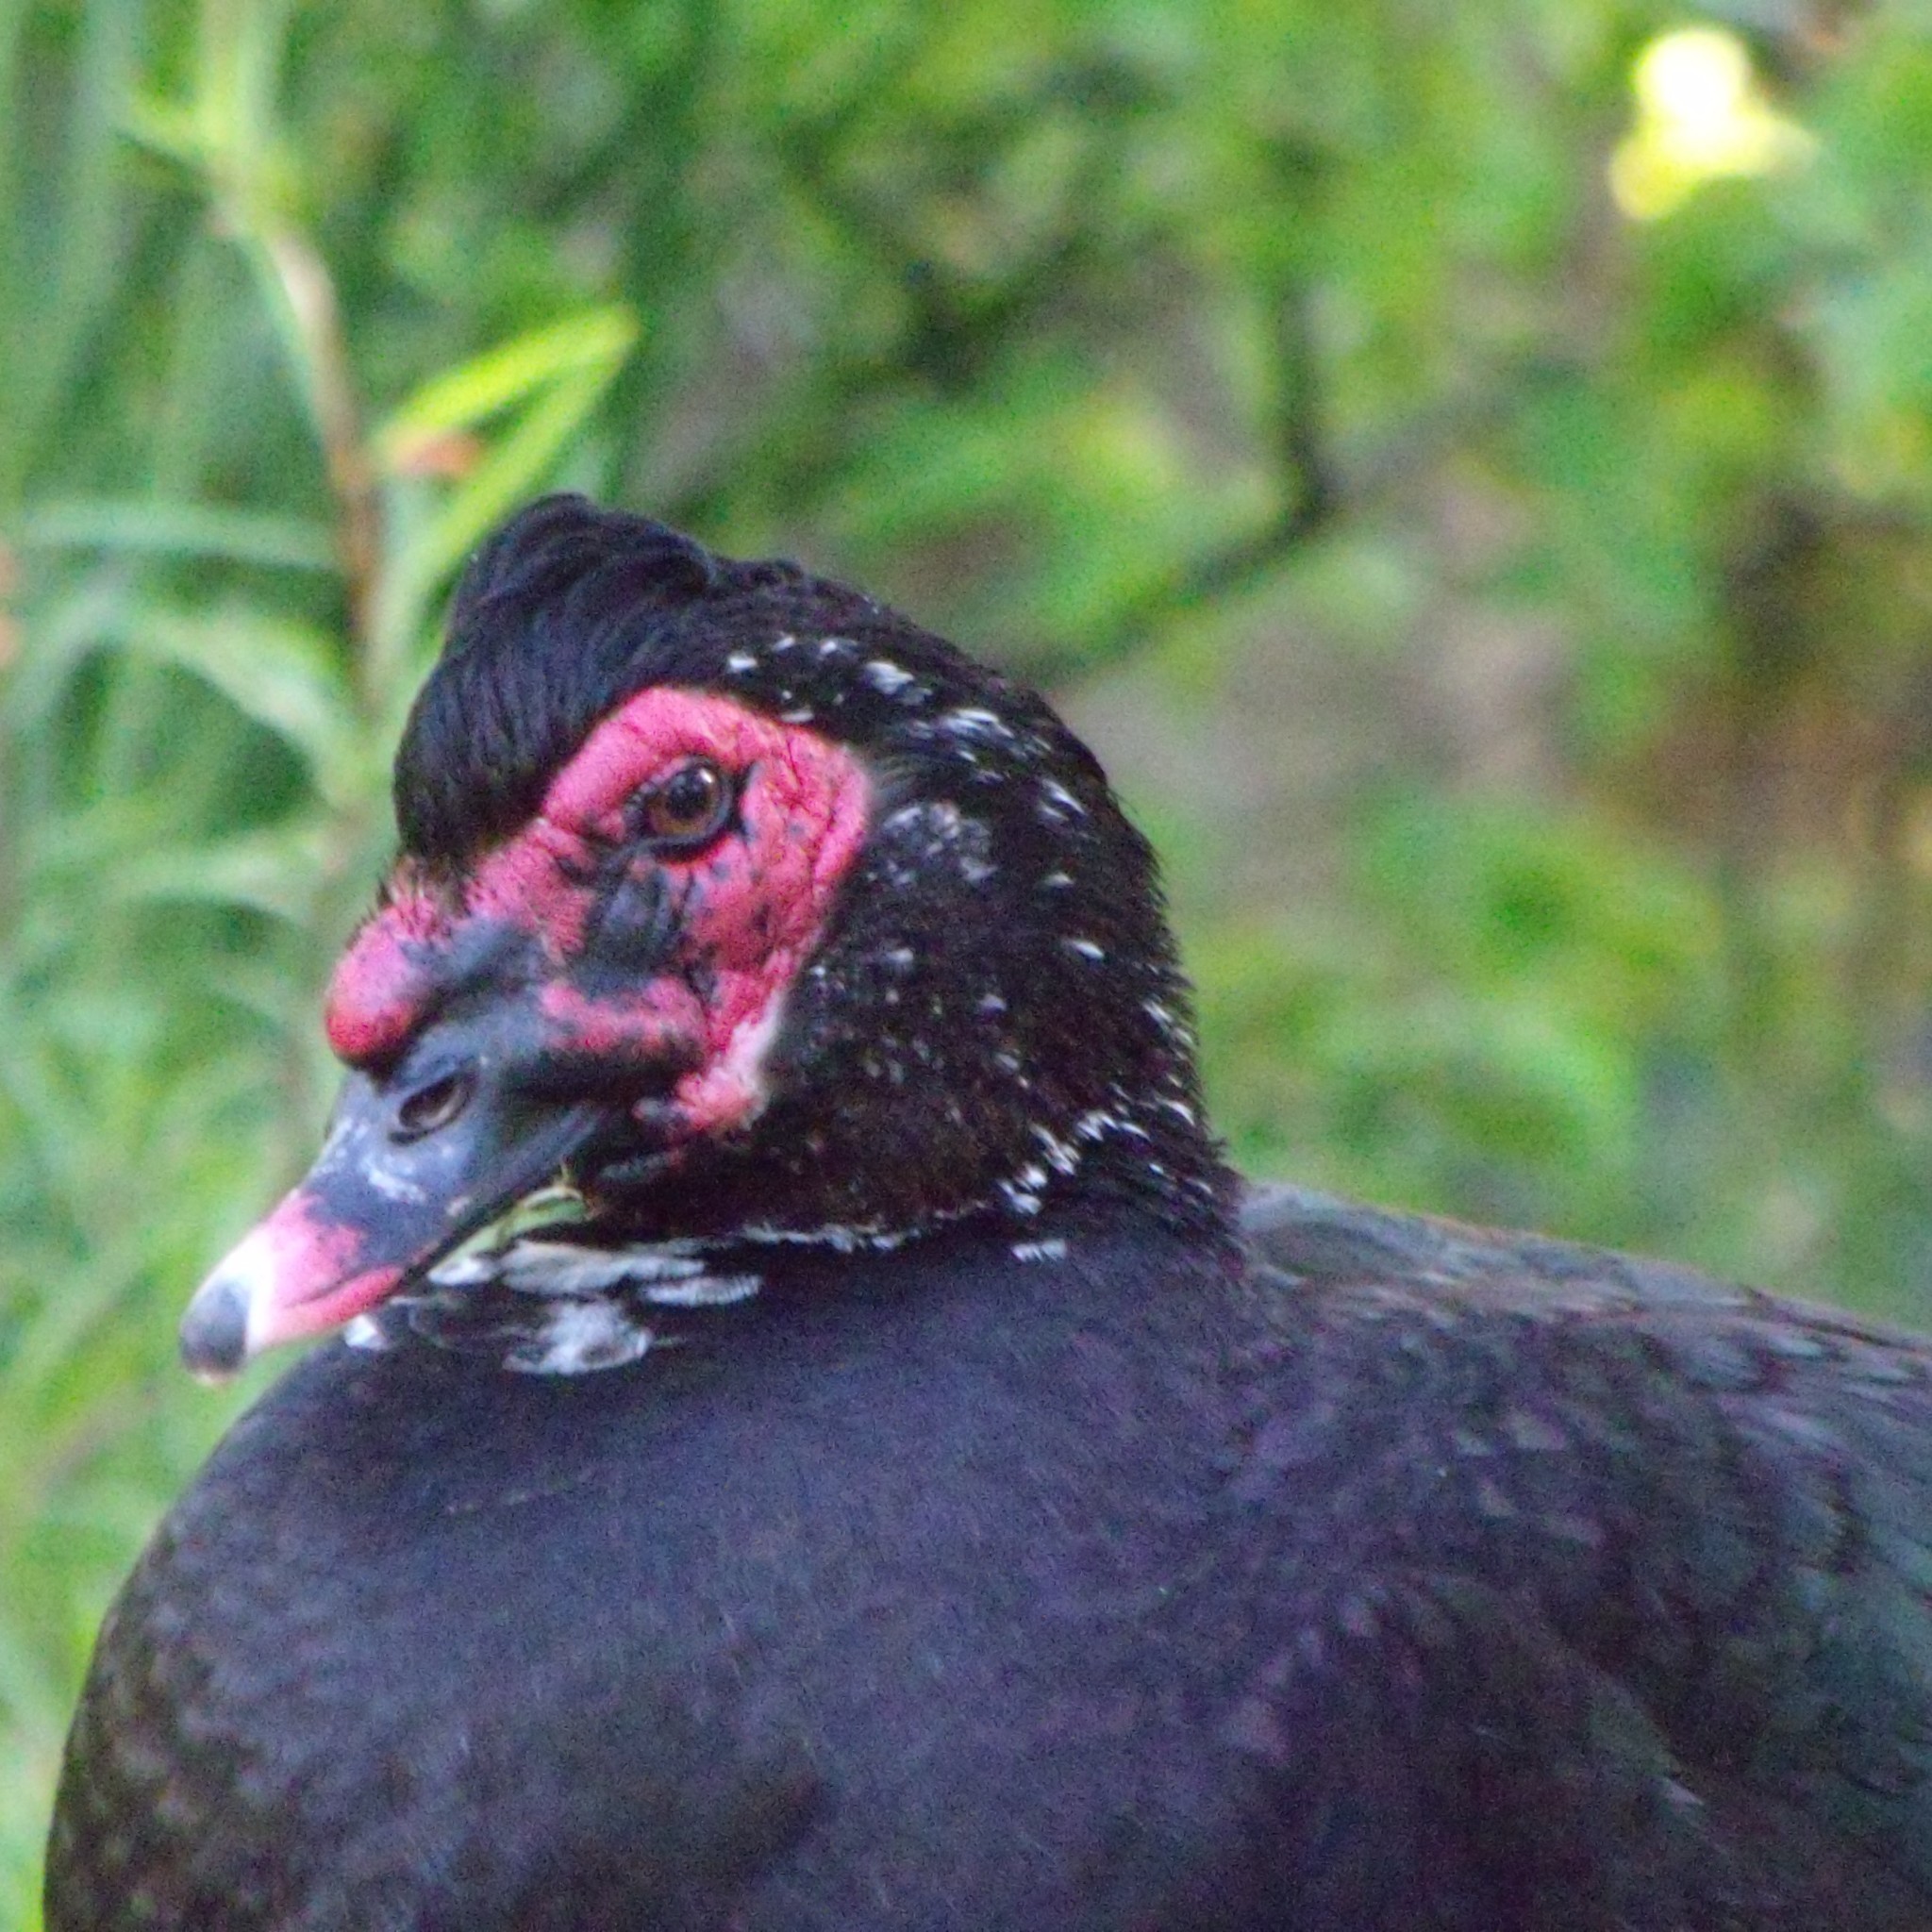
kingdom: Animalia
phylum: Chordata
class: Aves
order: Anseriformes
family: Anatidae
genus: Cairina
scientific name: Cairina moschata
